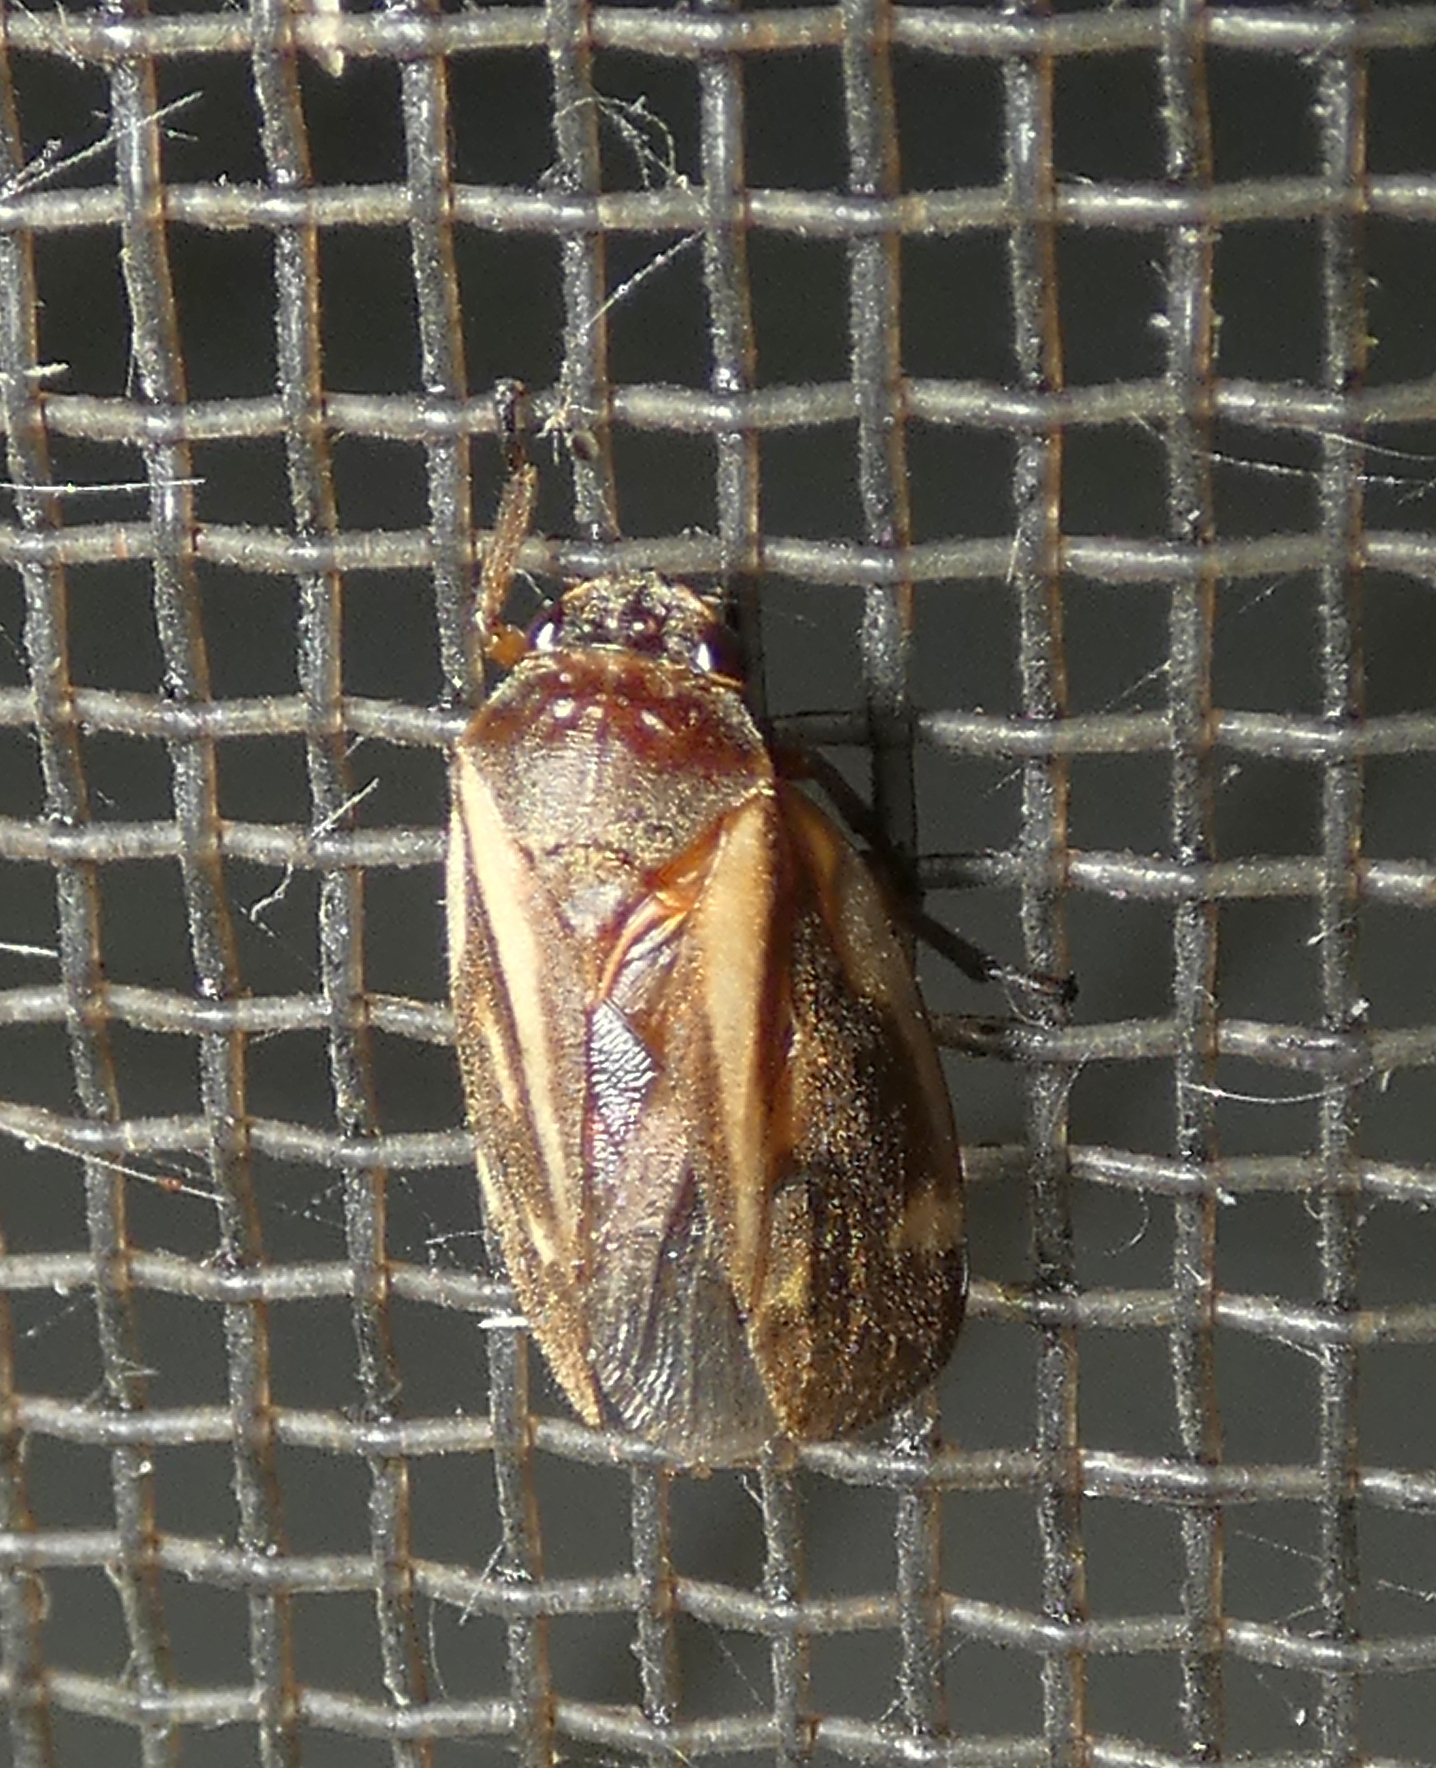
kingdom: Animalia
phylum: Arthropoda
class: Insecta
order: Hemiptera
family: Cercopidae
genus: Deois
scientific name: Deois incompleta
